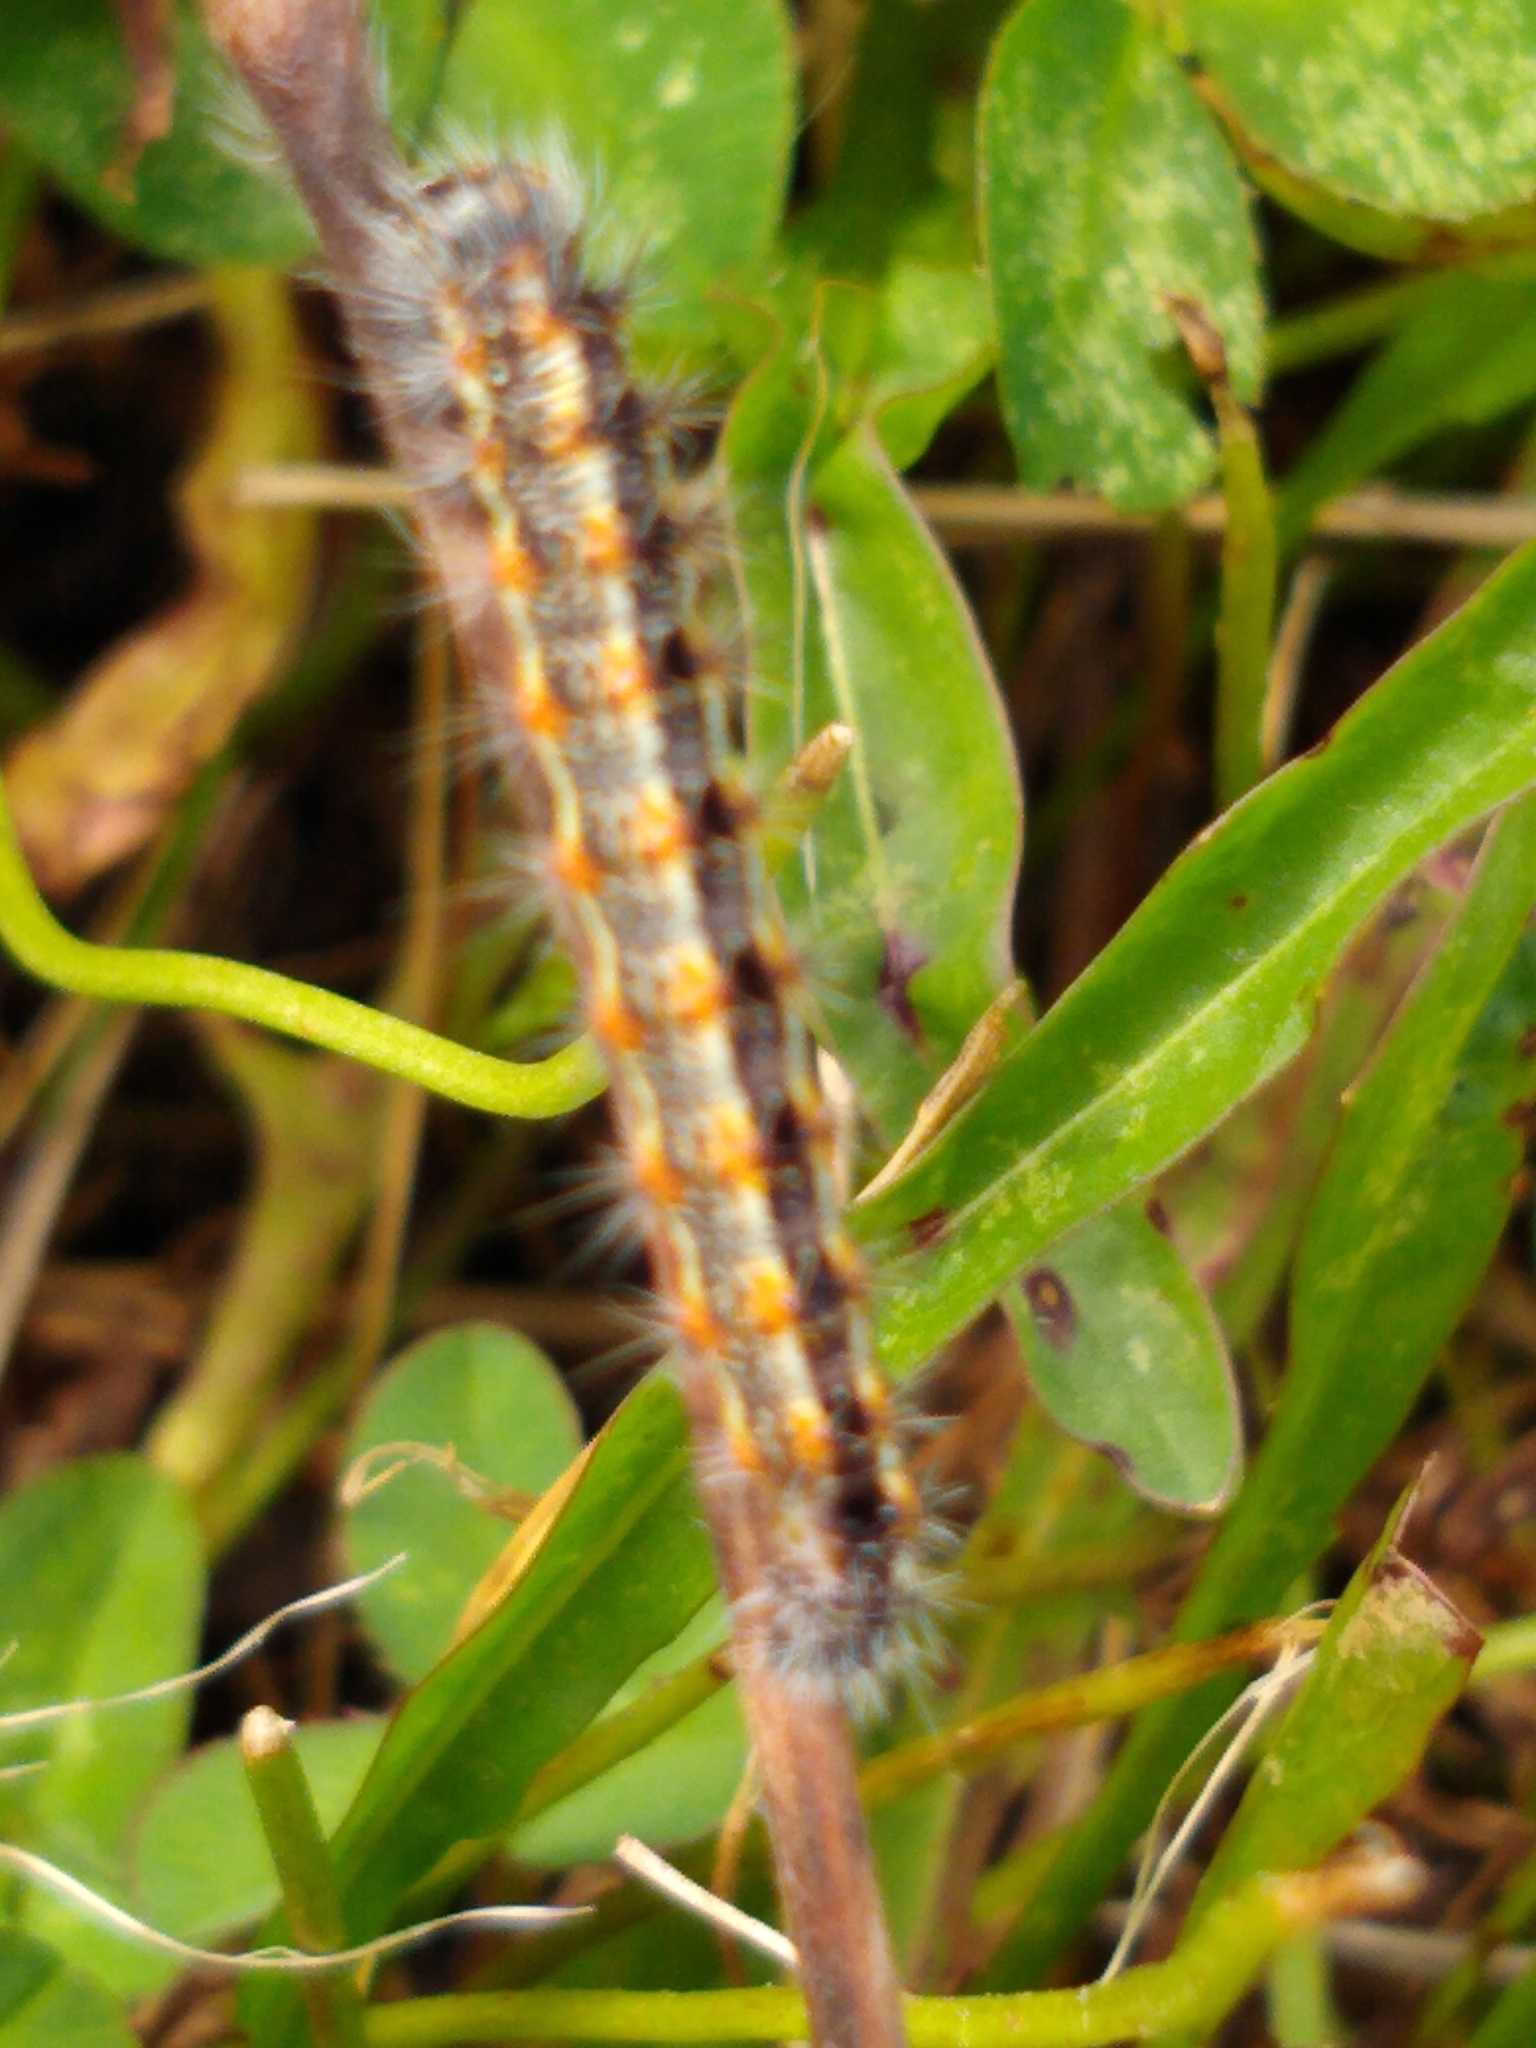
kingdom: Animalia
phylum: Arthropoda
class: Insecta
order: Lepidoptera
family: Noctuidae
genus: Acronicta
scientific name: Acronicta insularis
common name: Henry's marsh moth
